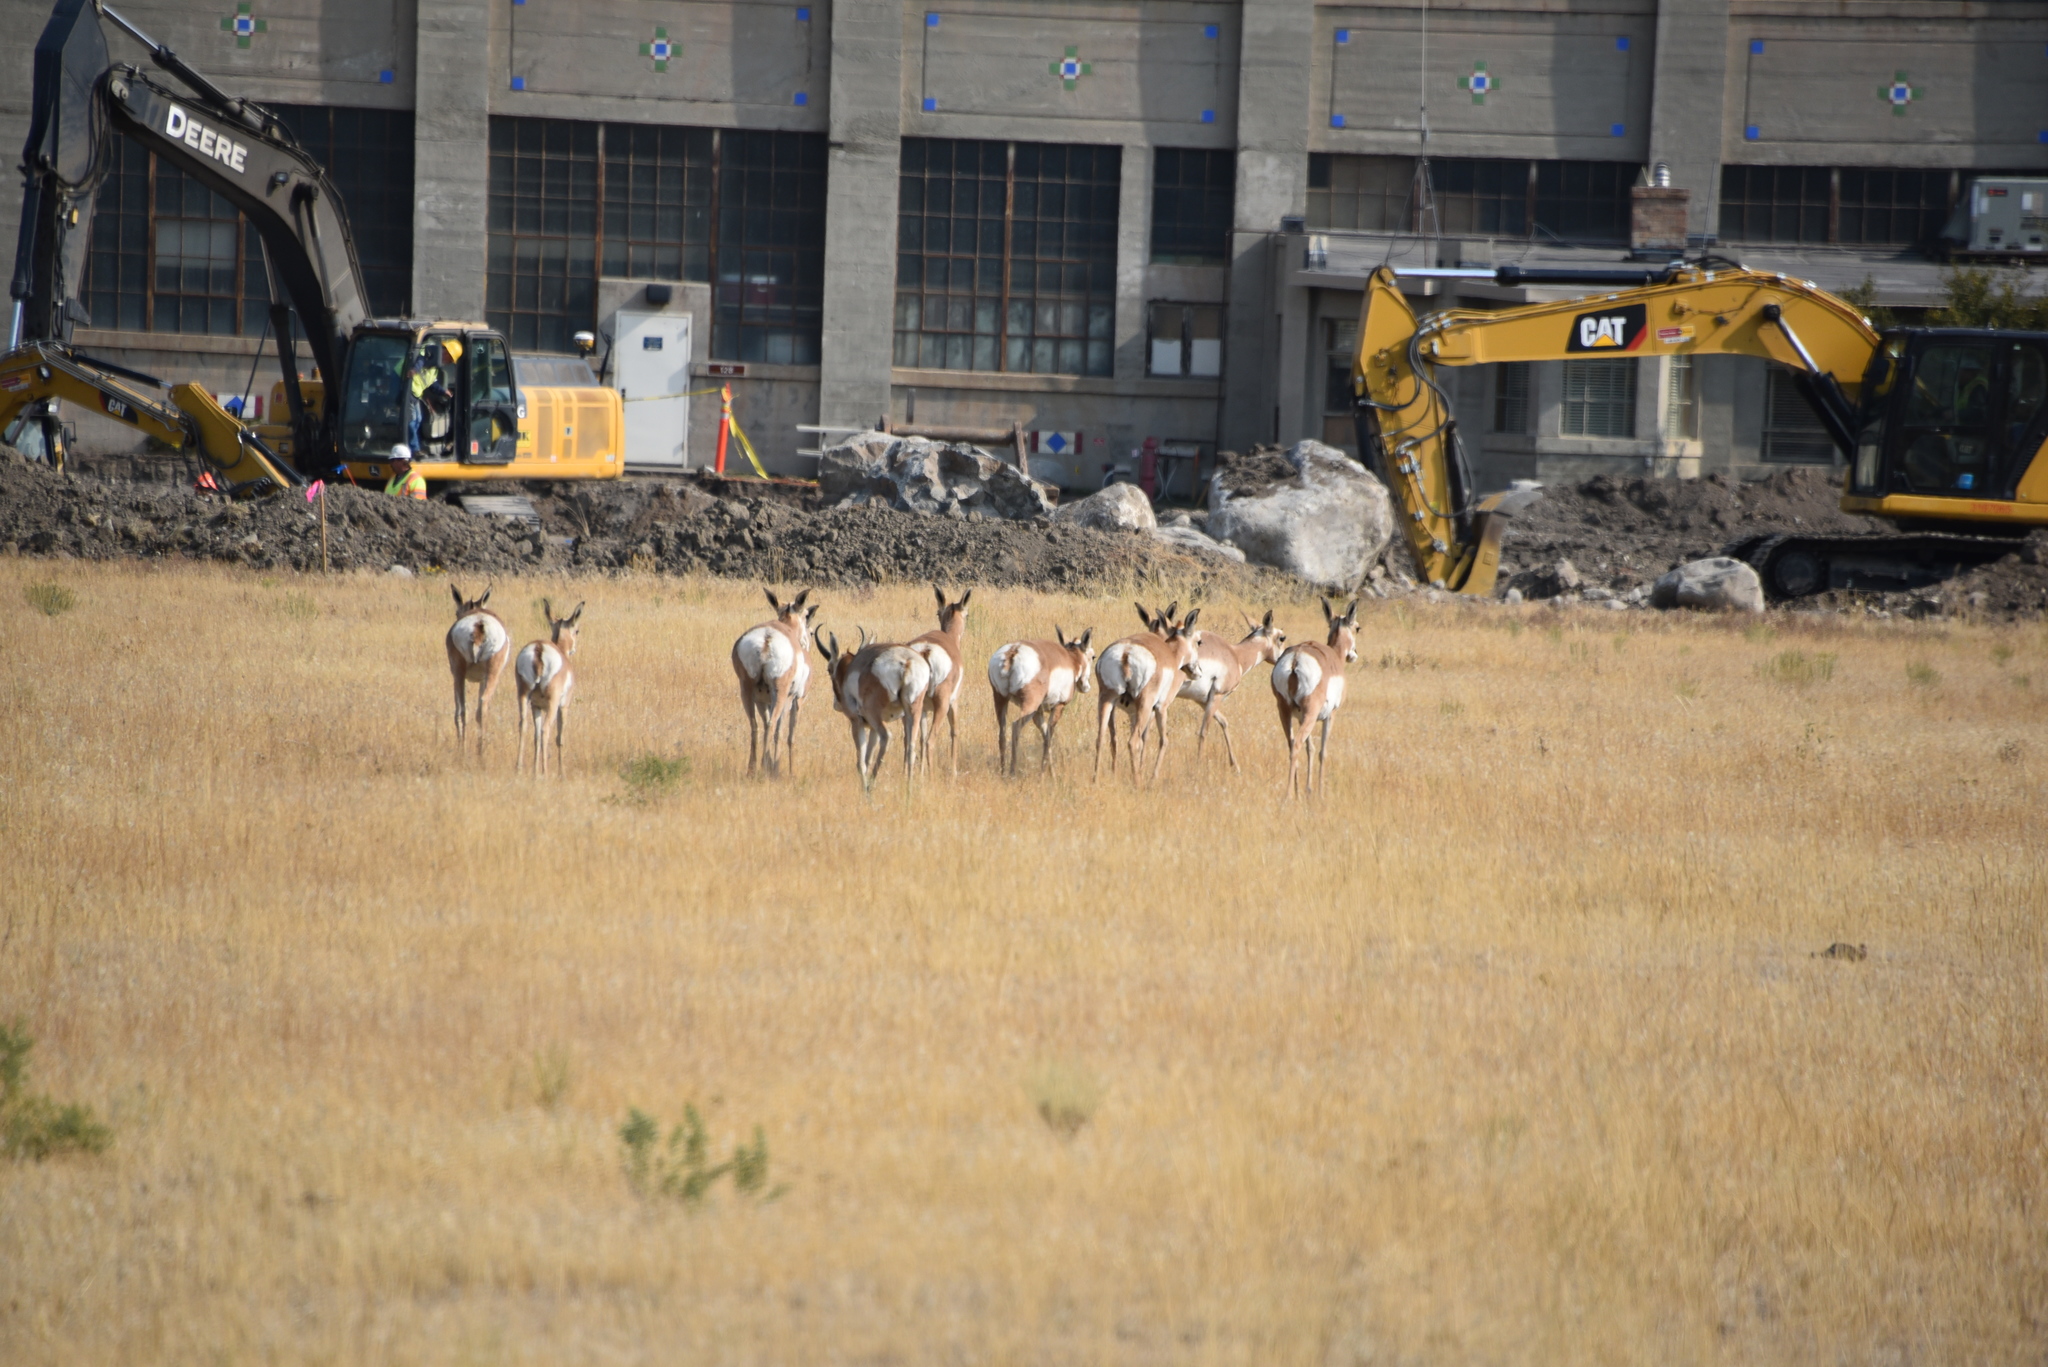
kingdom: Animalia
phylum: Chordata
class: Mammalia
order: Artiodactyla
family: Antilocapridae
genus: Antilocapra
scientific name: Antilocapra americana
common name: Pronghorn
